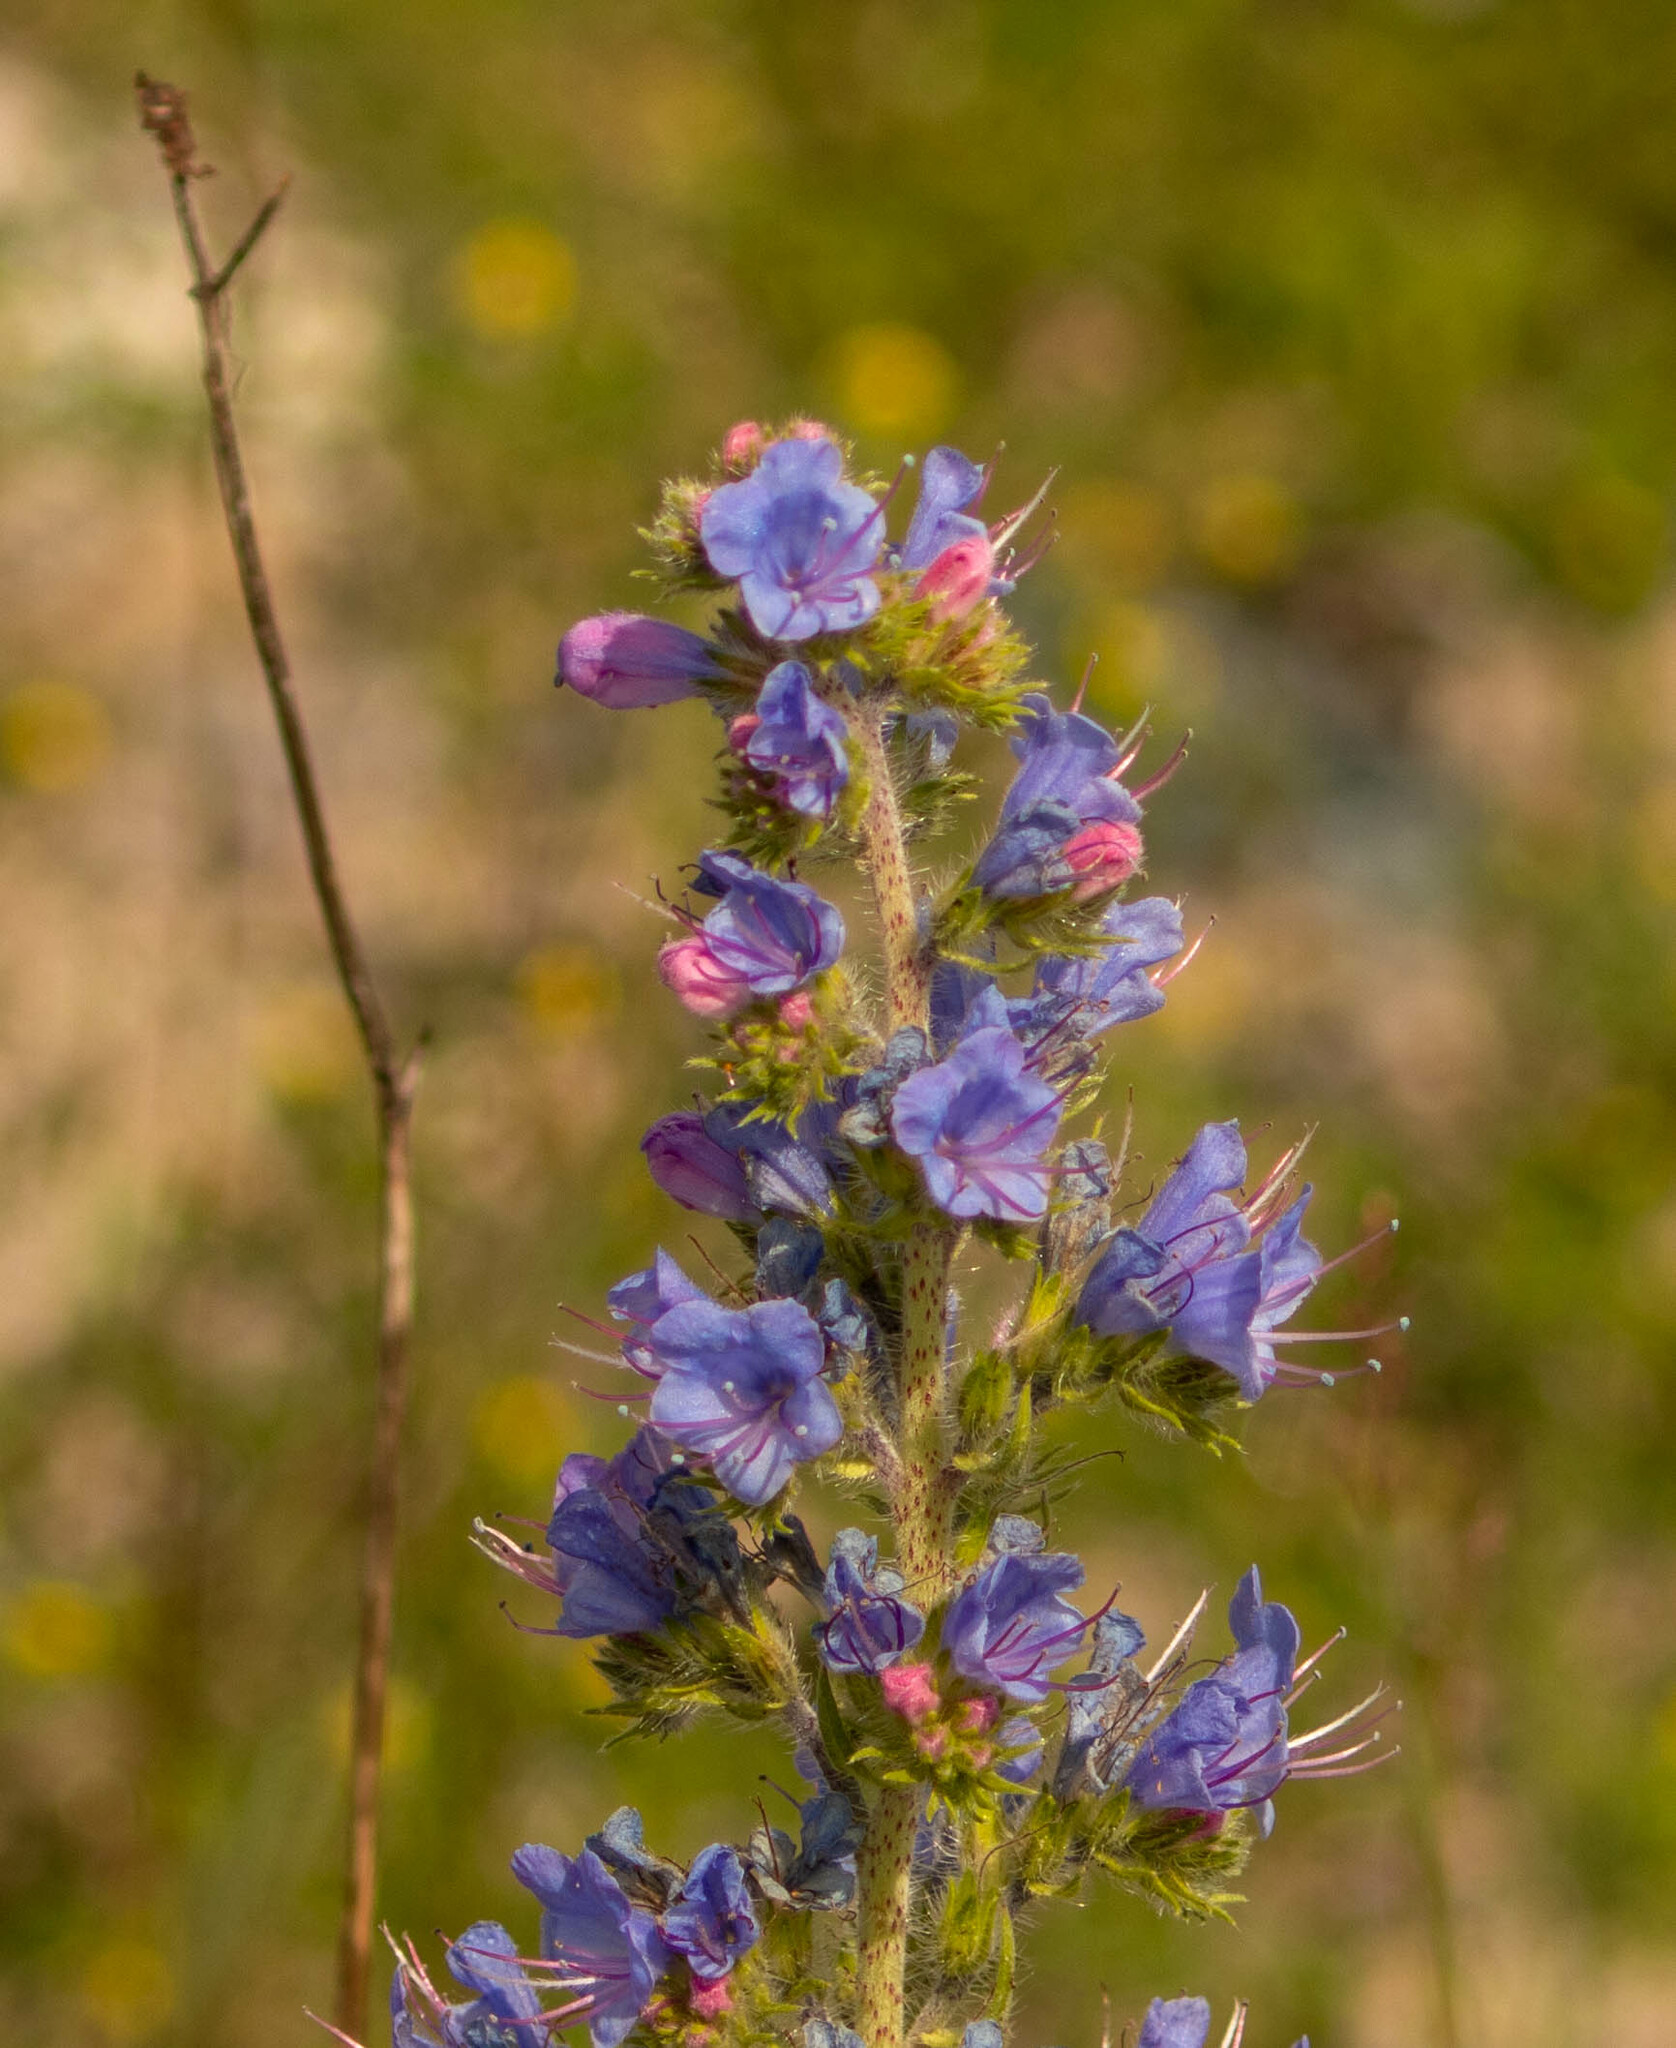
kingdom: Plantae
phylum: Tracheophyta
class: Magnoliopsida
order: Boraginales
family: Boraginaceae
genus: Echium
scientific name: Echium vulgare
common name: Common viper's bugloss
